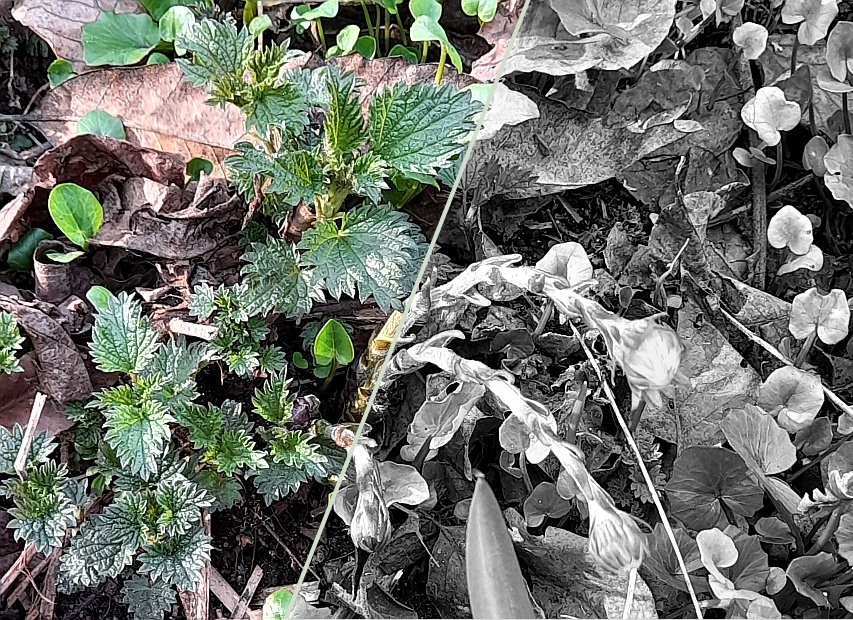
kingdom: Plantae
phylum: Tracheophyta
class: Magnoliopsida
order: Rosales
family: Urticaceae
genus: Urtica
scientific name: Urtica dioica
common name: Common nettle
